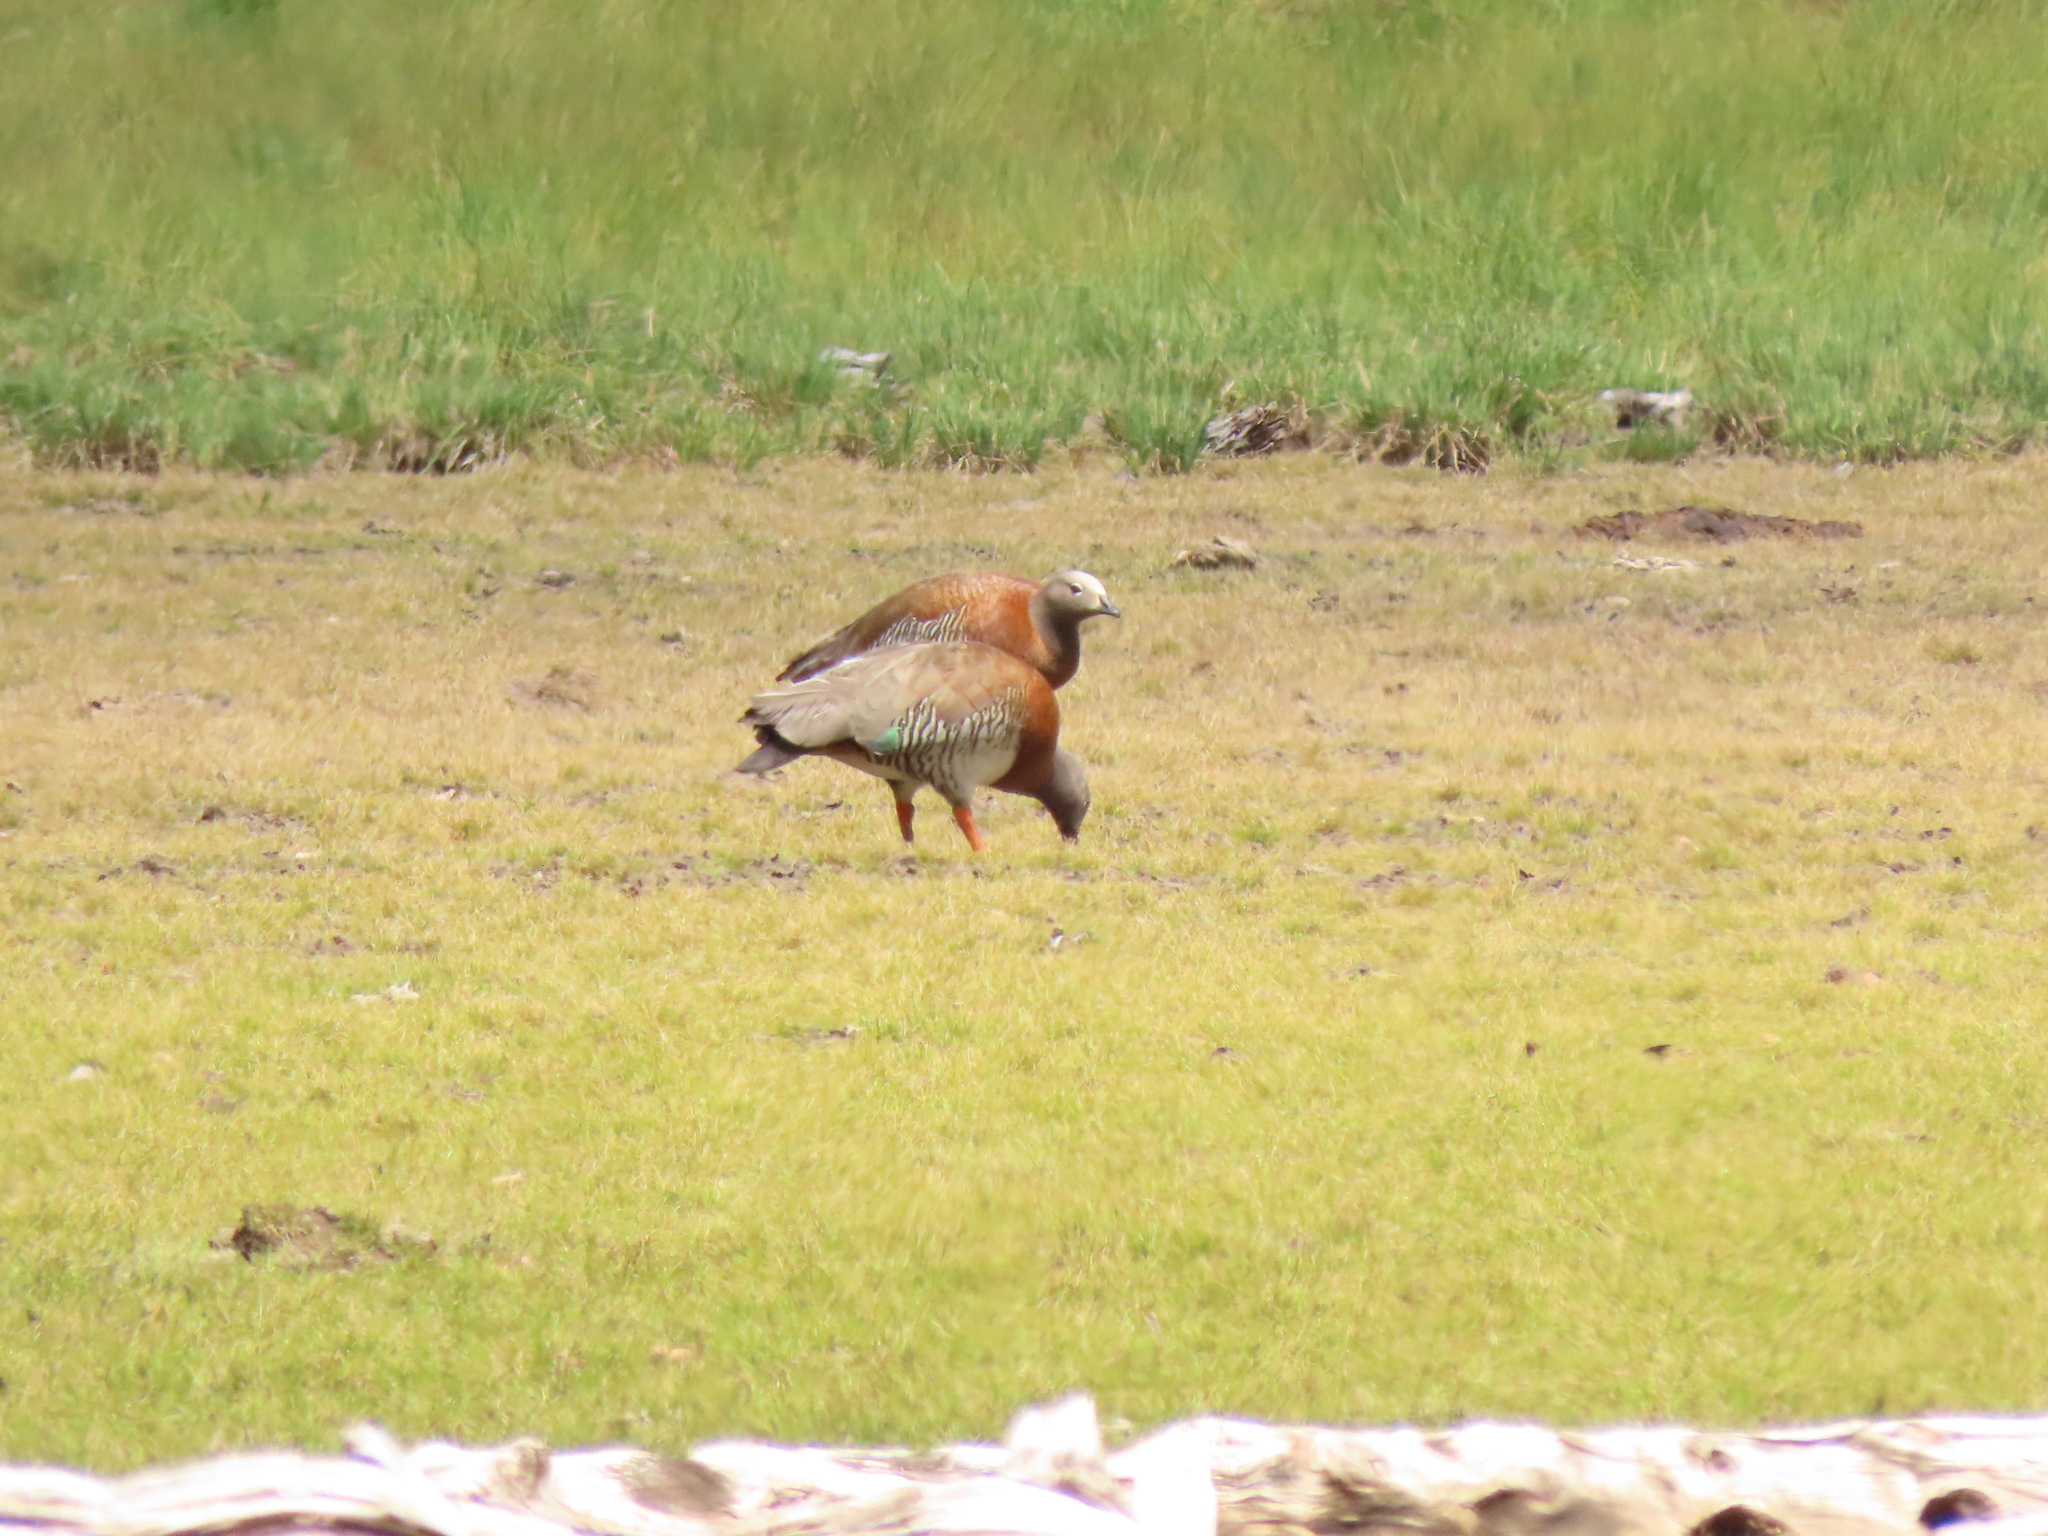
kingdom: Animalia
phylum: Chordata
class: Aves
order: Anseriformes
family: Anatidae
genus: Chloephaga
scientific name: Chloephaga poliocephala
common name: Ashy-headed goose
